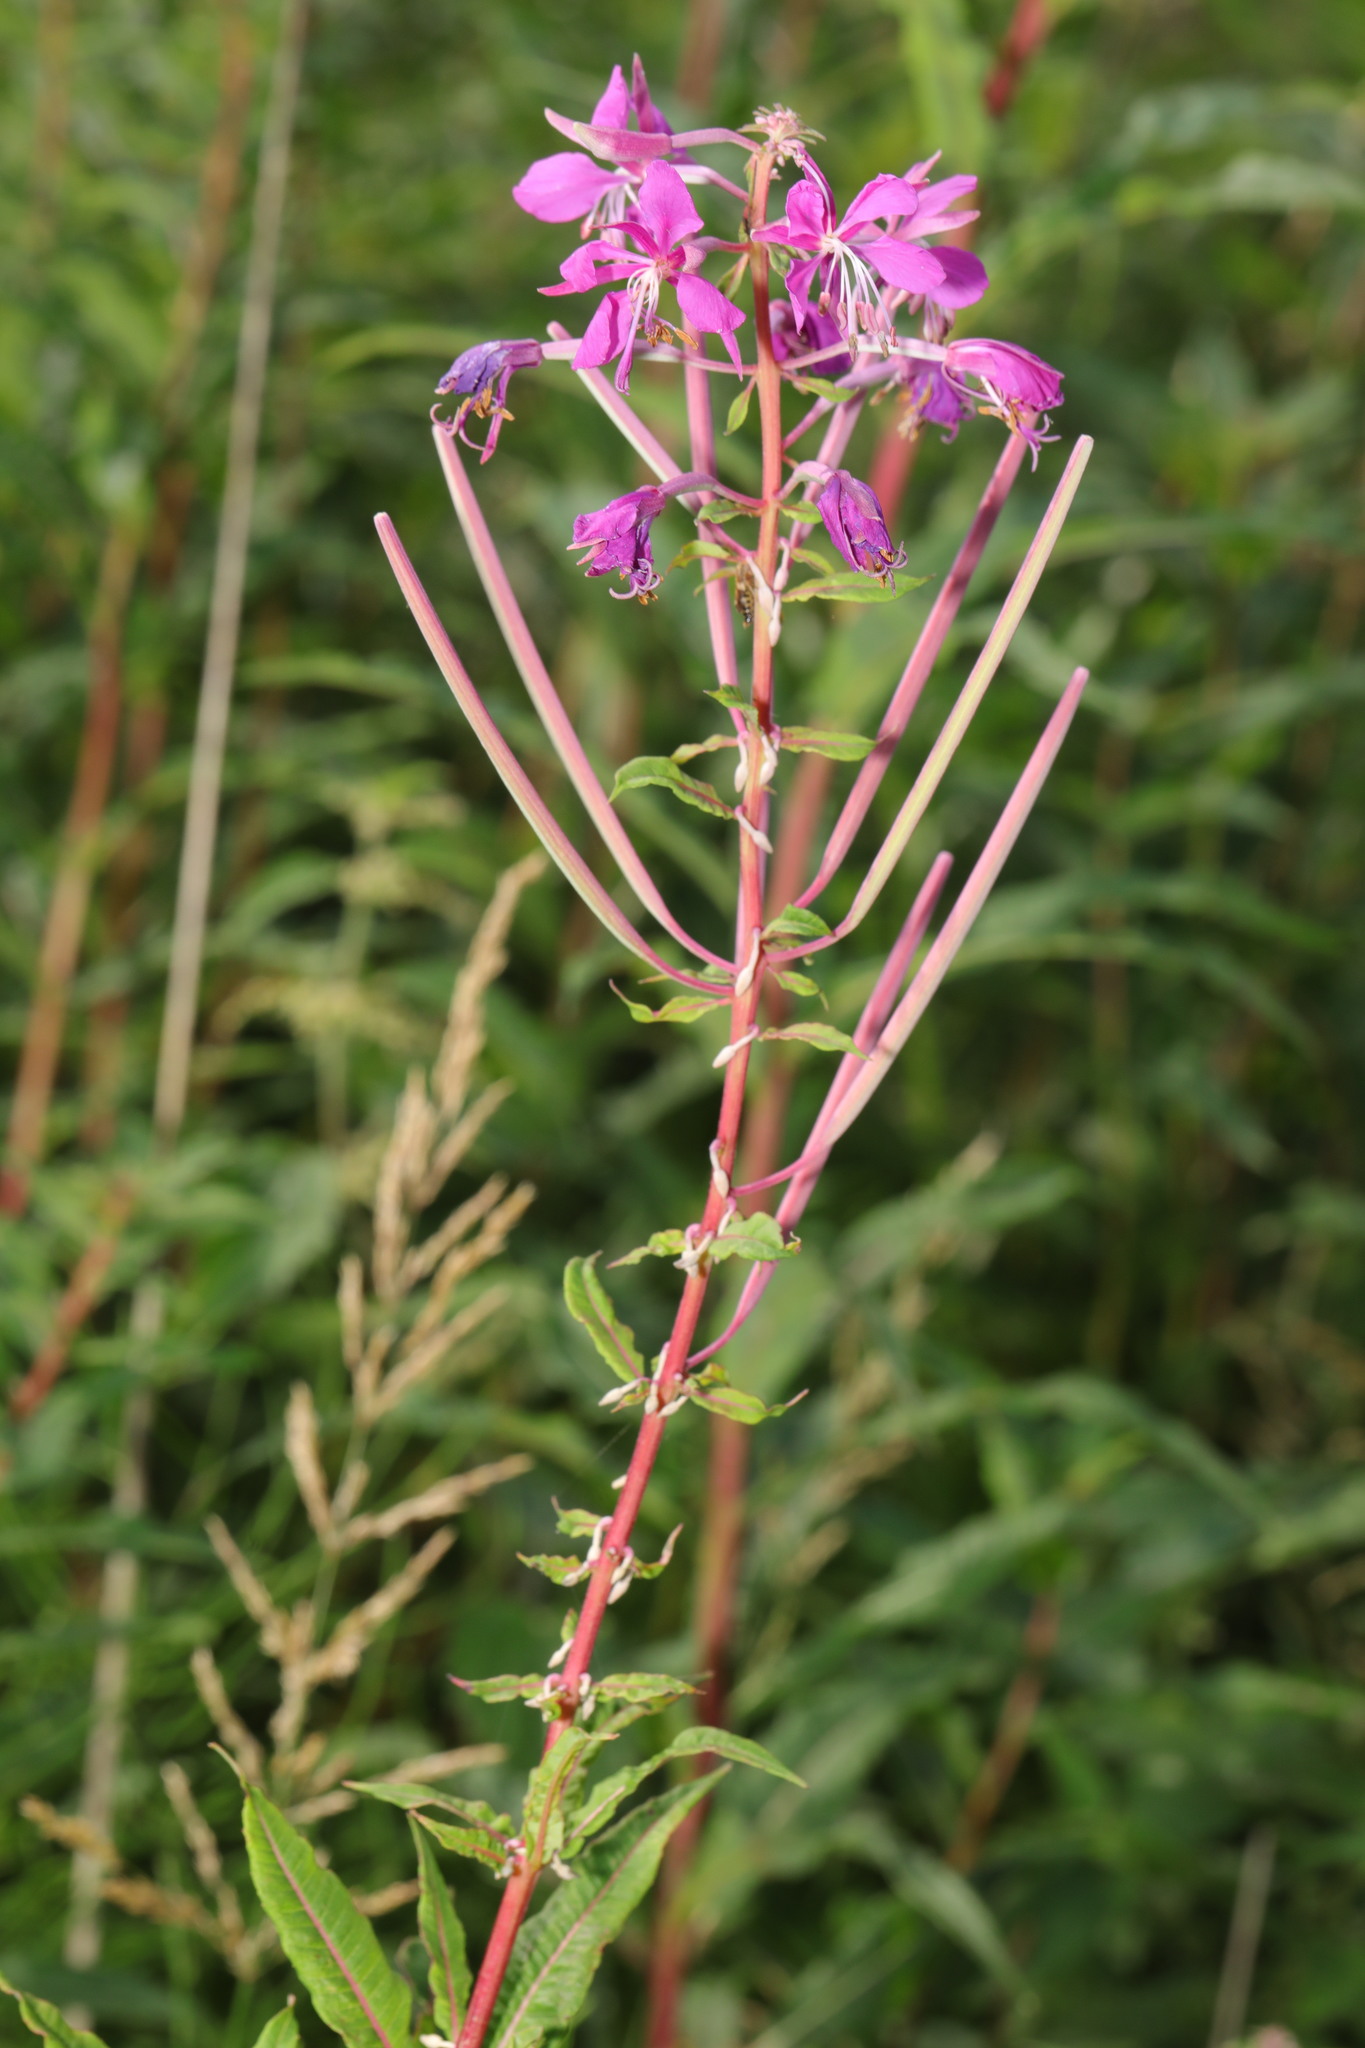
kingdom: Plantae
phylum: Tracheophyta
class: Magnoliopsida
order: Myrtales
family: Onagraceae
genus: Chamaenerion
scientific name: Chamaenerion angustifolium
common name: Fireweed
